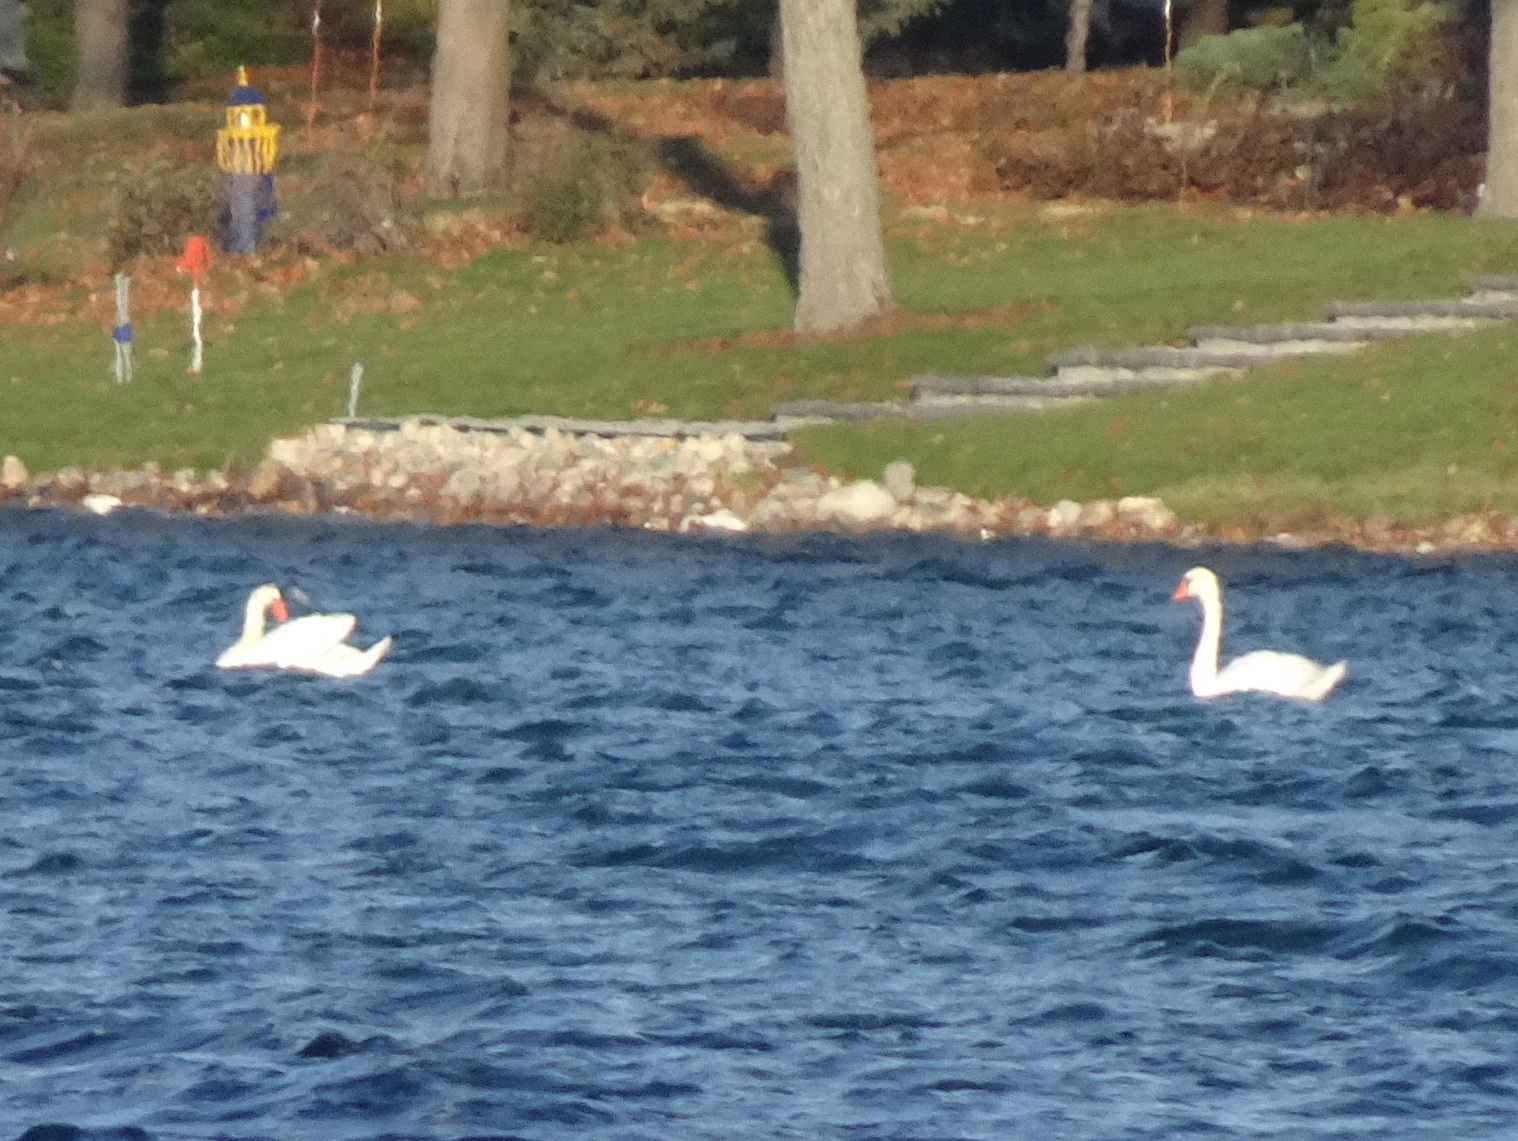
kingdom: Animalia
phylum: Chordata
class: Aves
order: Anseriformes
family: Anatidae
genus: Cygnus
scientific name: Cygnus olor
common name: Mute swan
